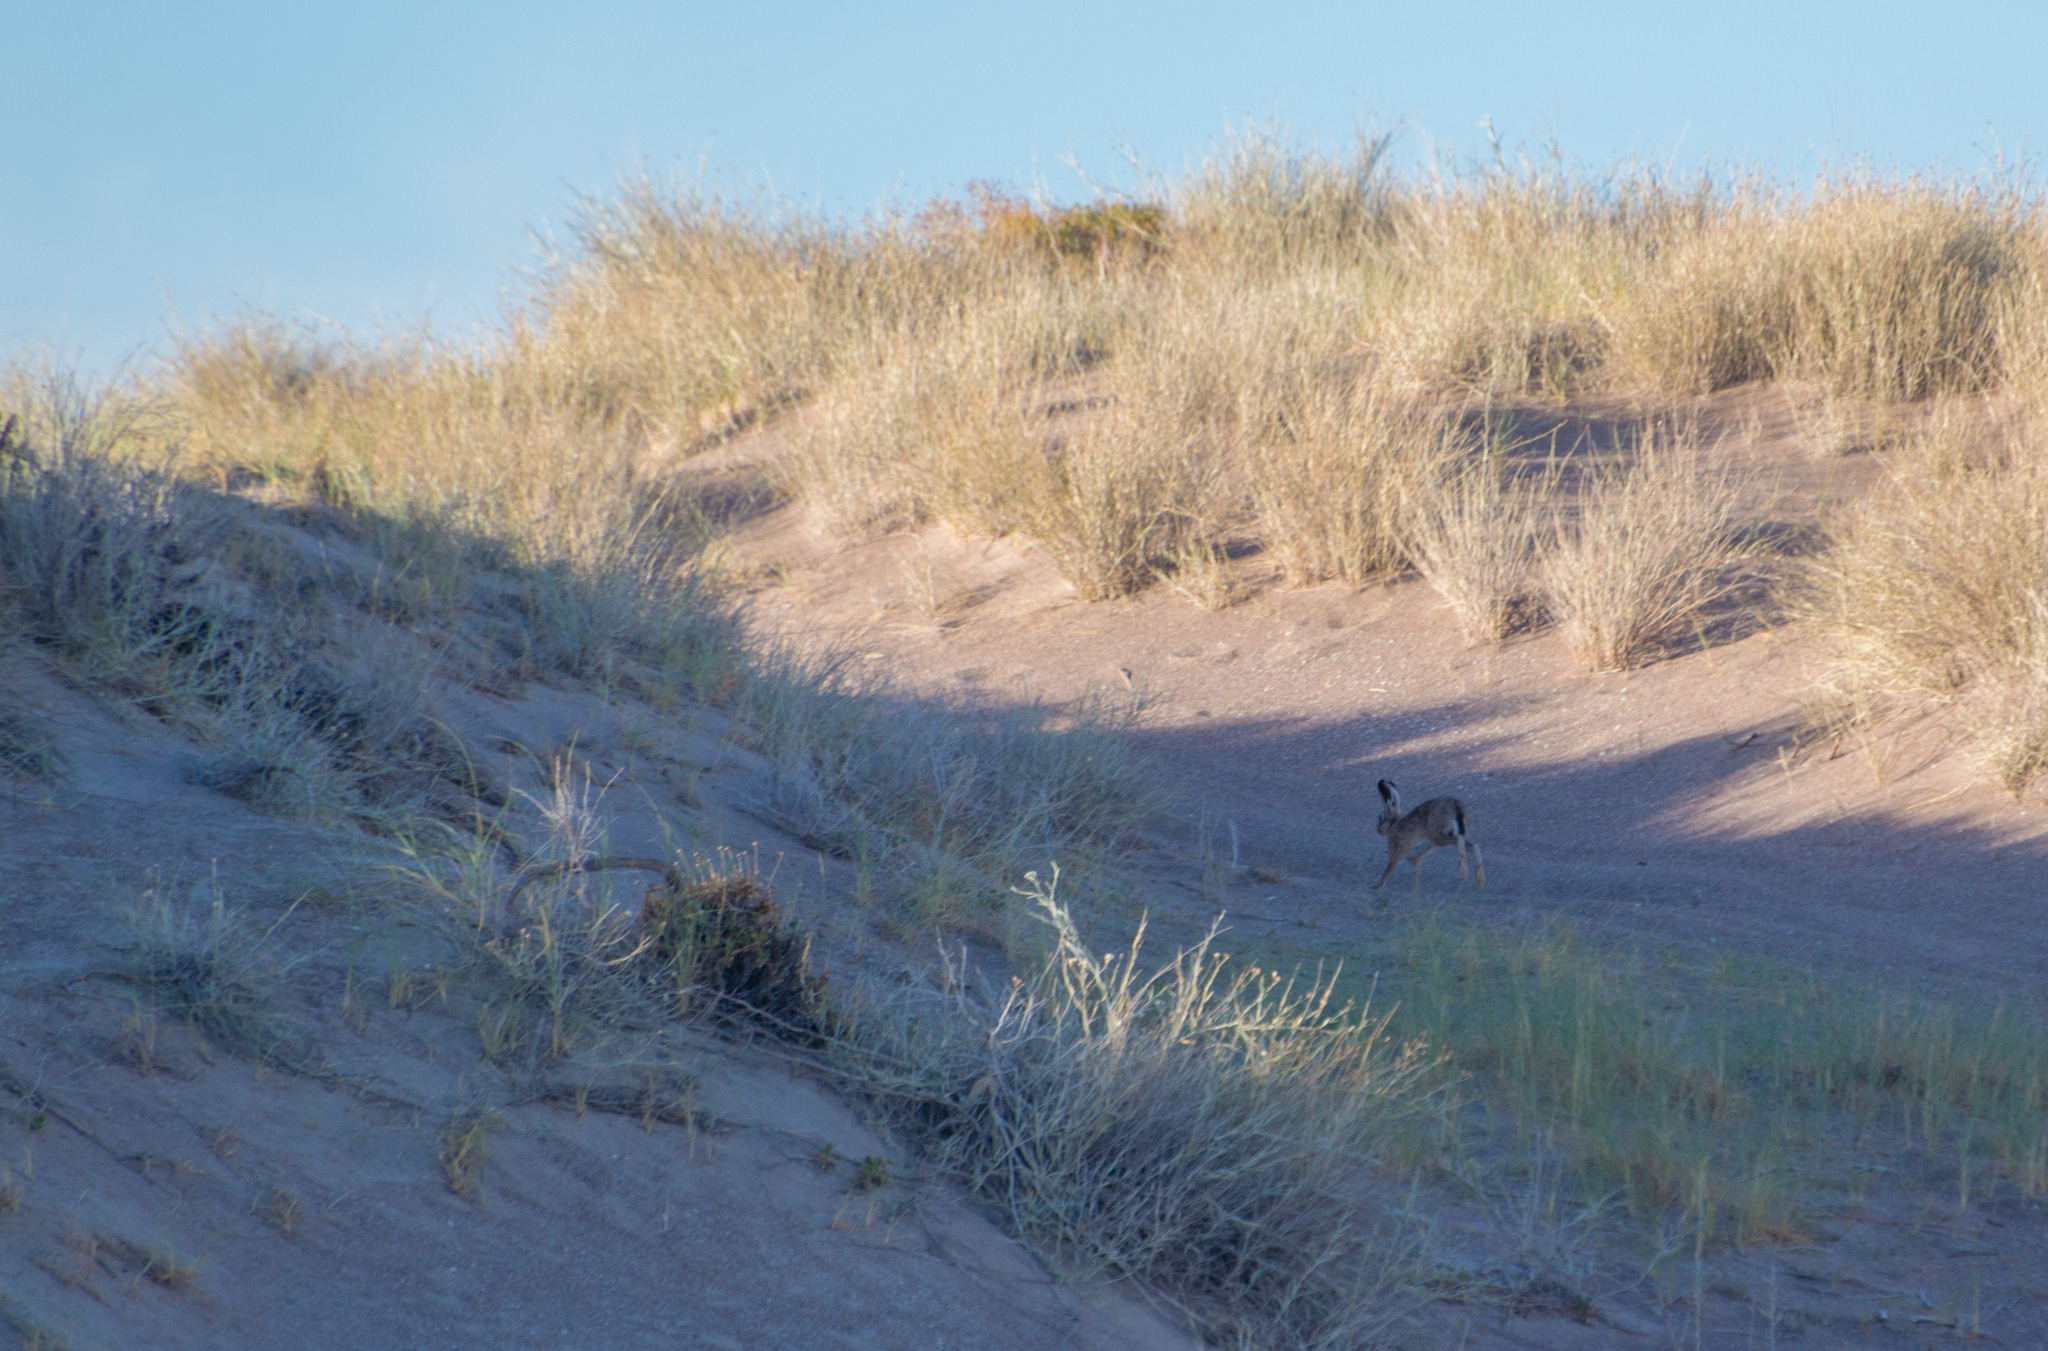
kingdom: Animalia
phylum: Chordata
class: Mammalia
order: Lagomorpha
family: Leporidae
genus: Lepus
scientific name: Lepus europaeus
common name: European hare
